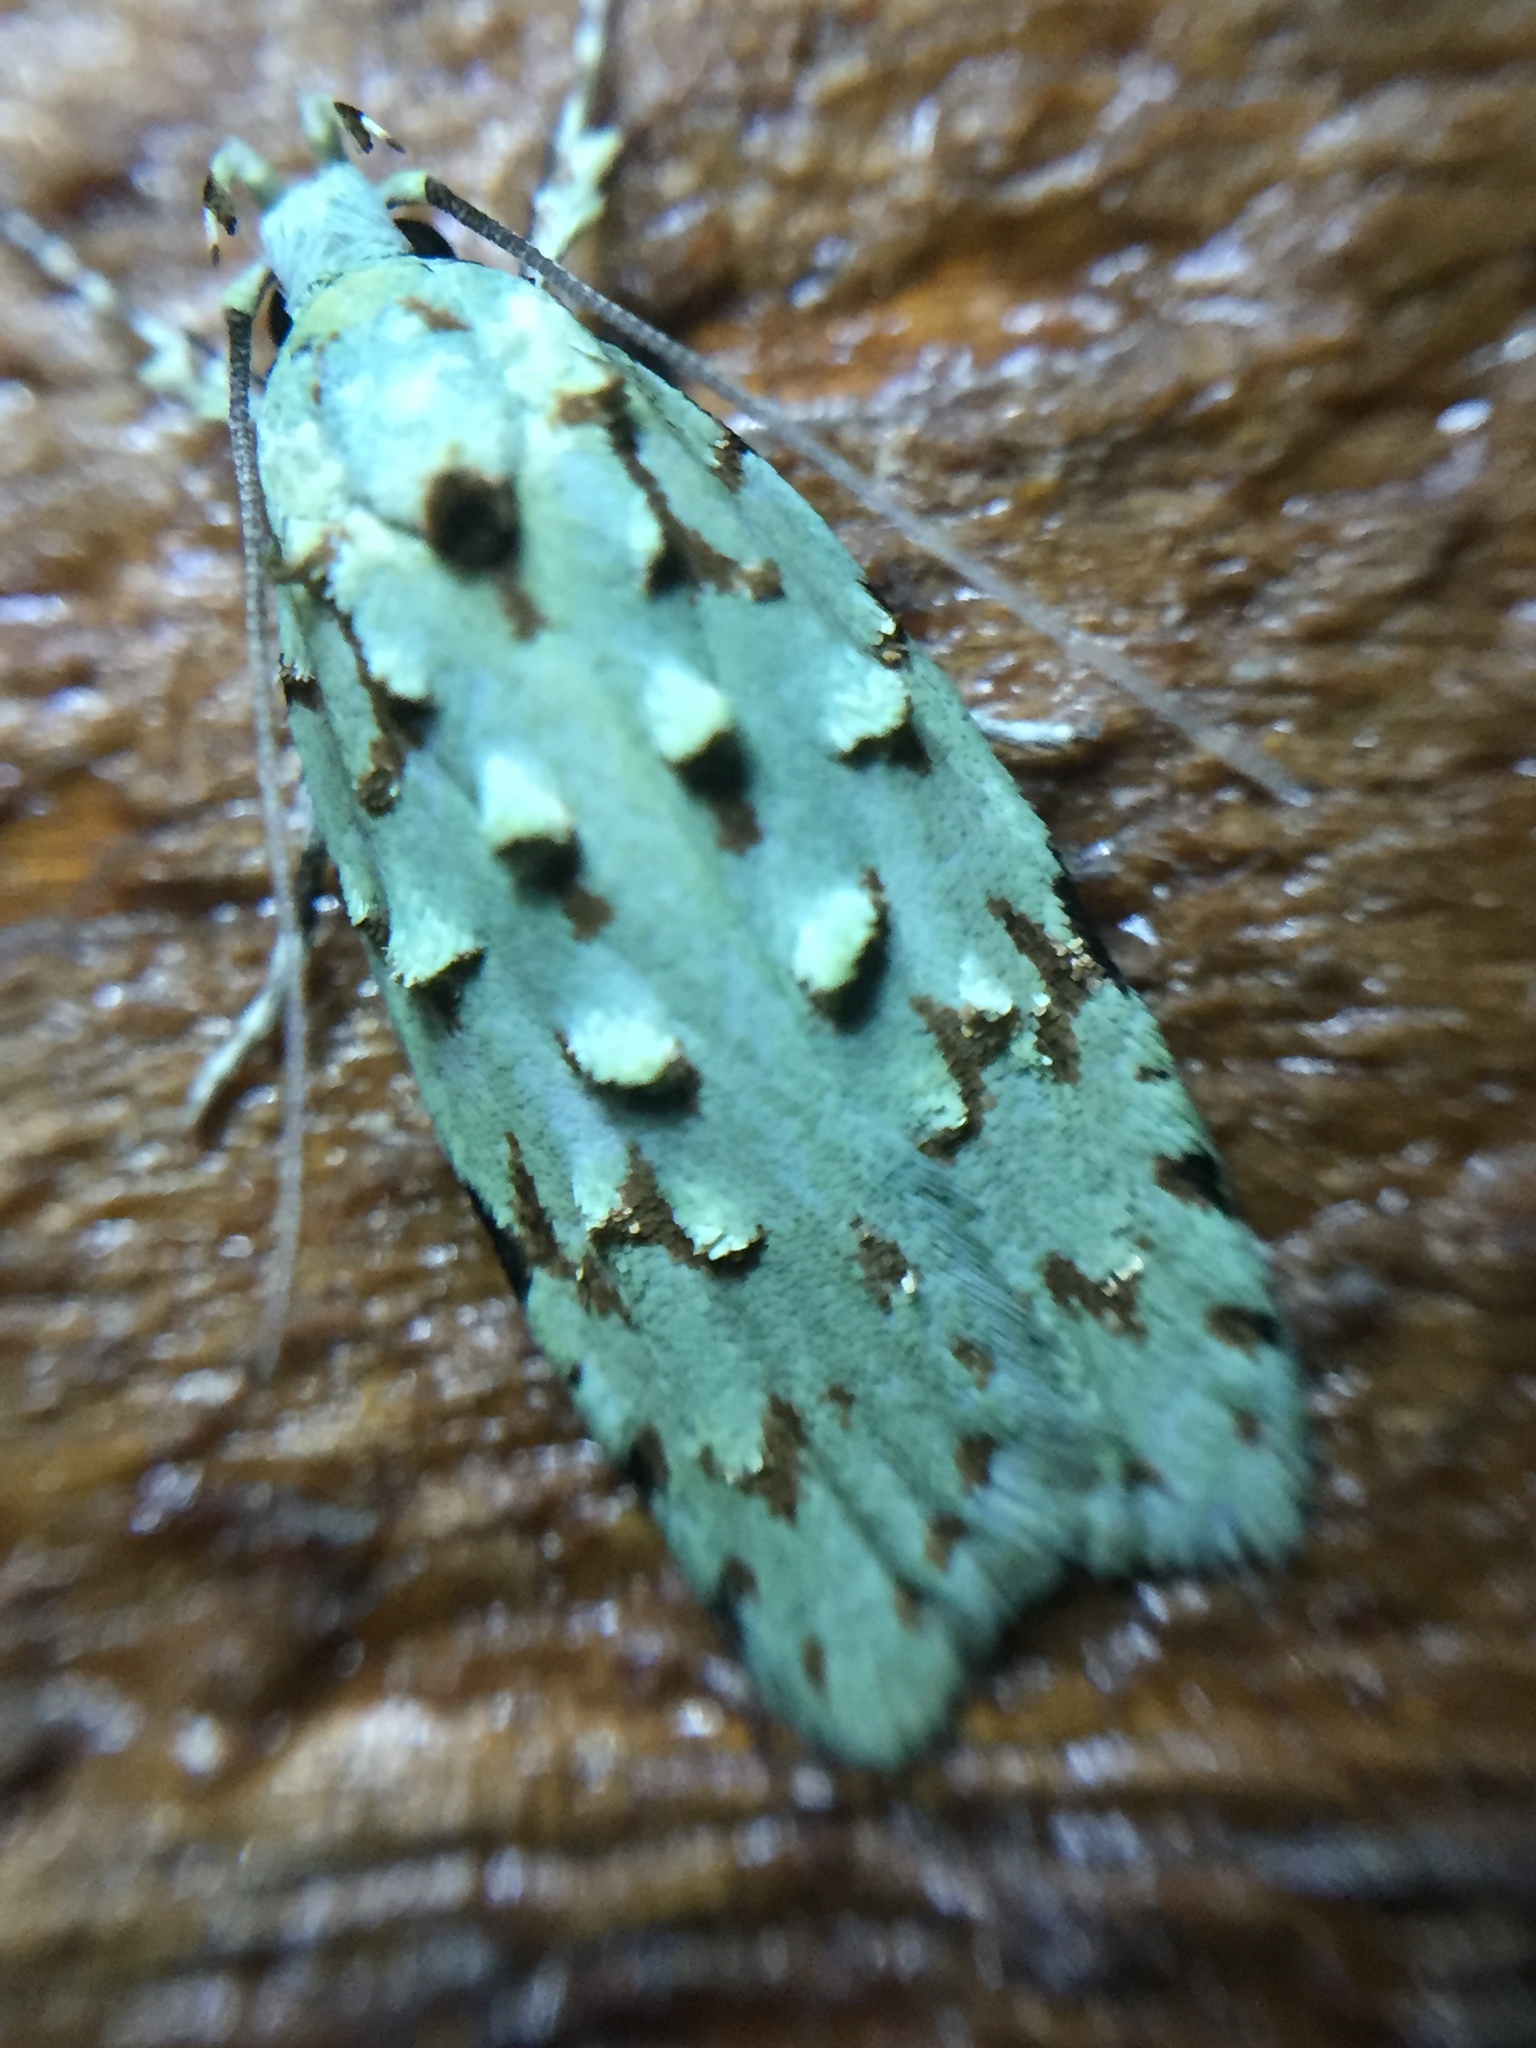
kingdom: Animalia
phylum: Arthropoda
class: Insecta
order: Lepidoptera
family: Oecophoridae
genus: Izatha
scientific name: Izatha peroneanella
